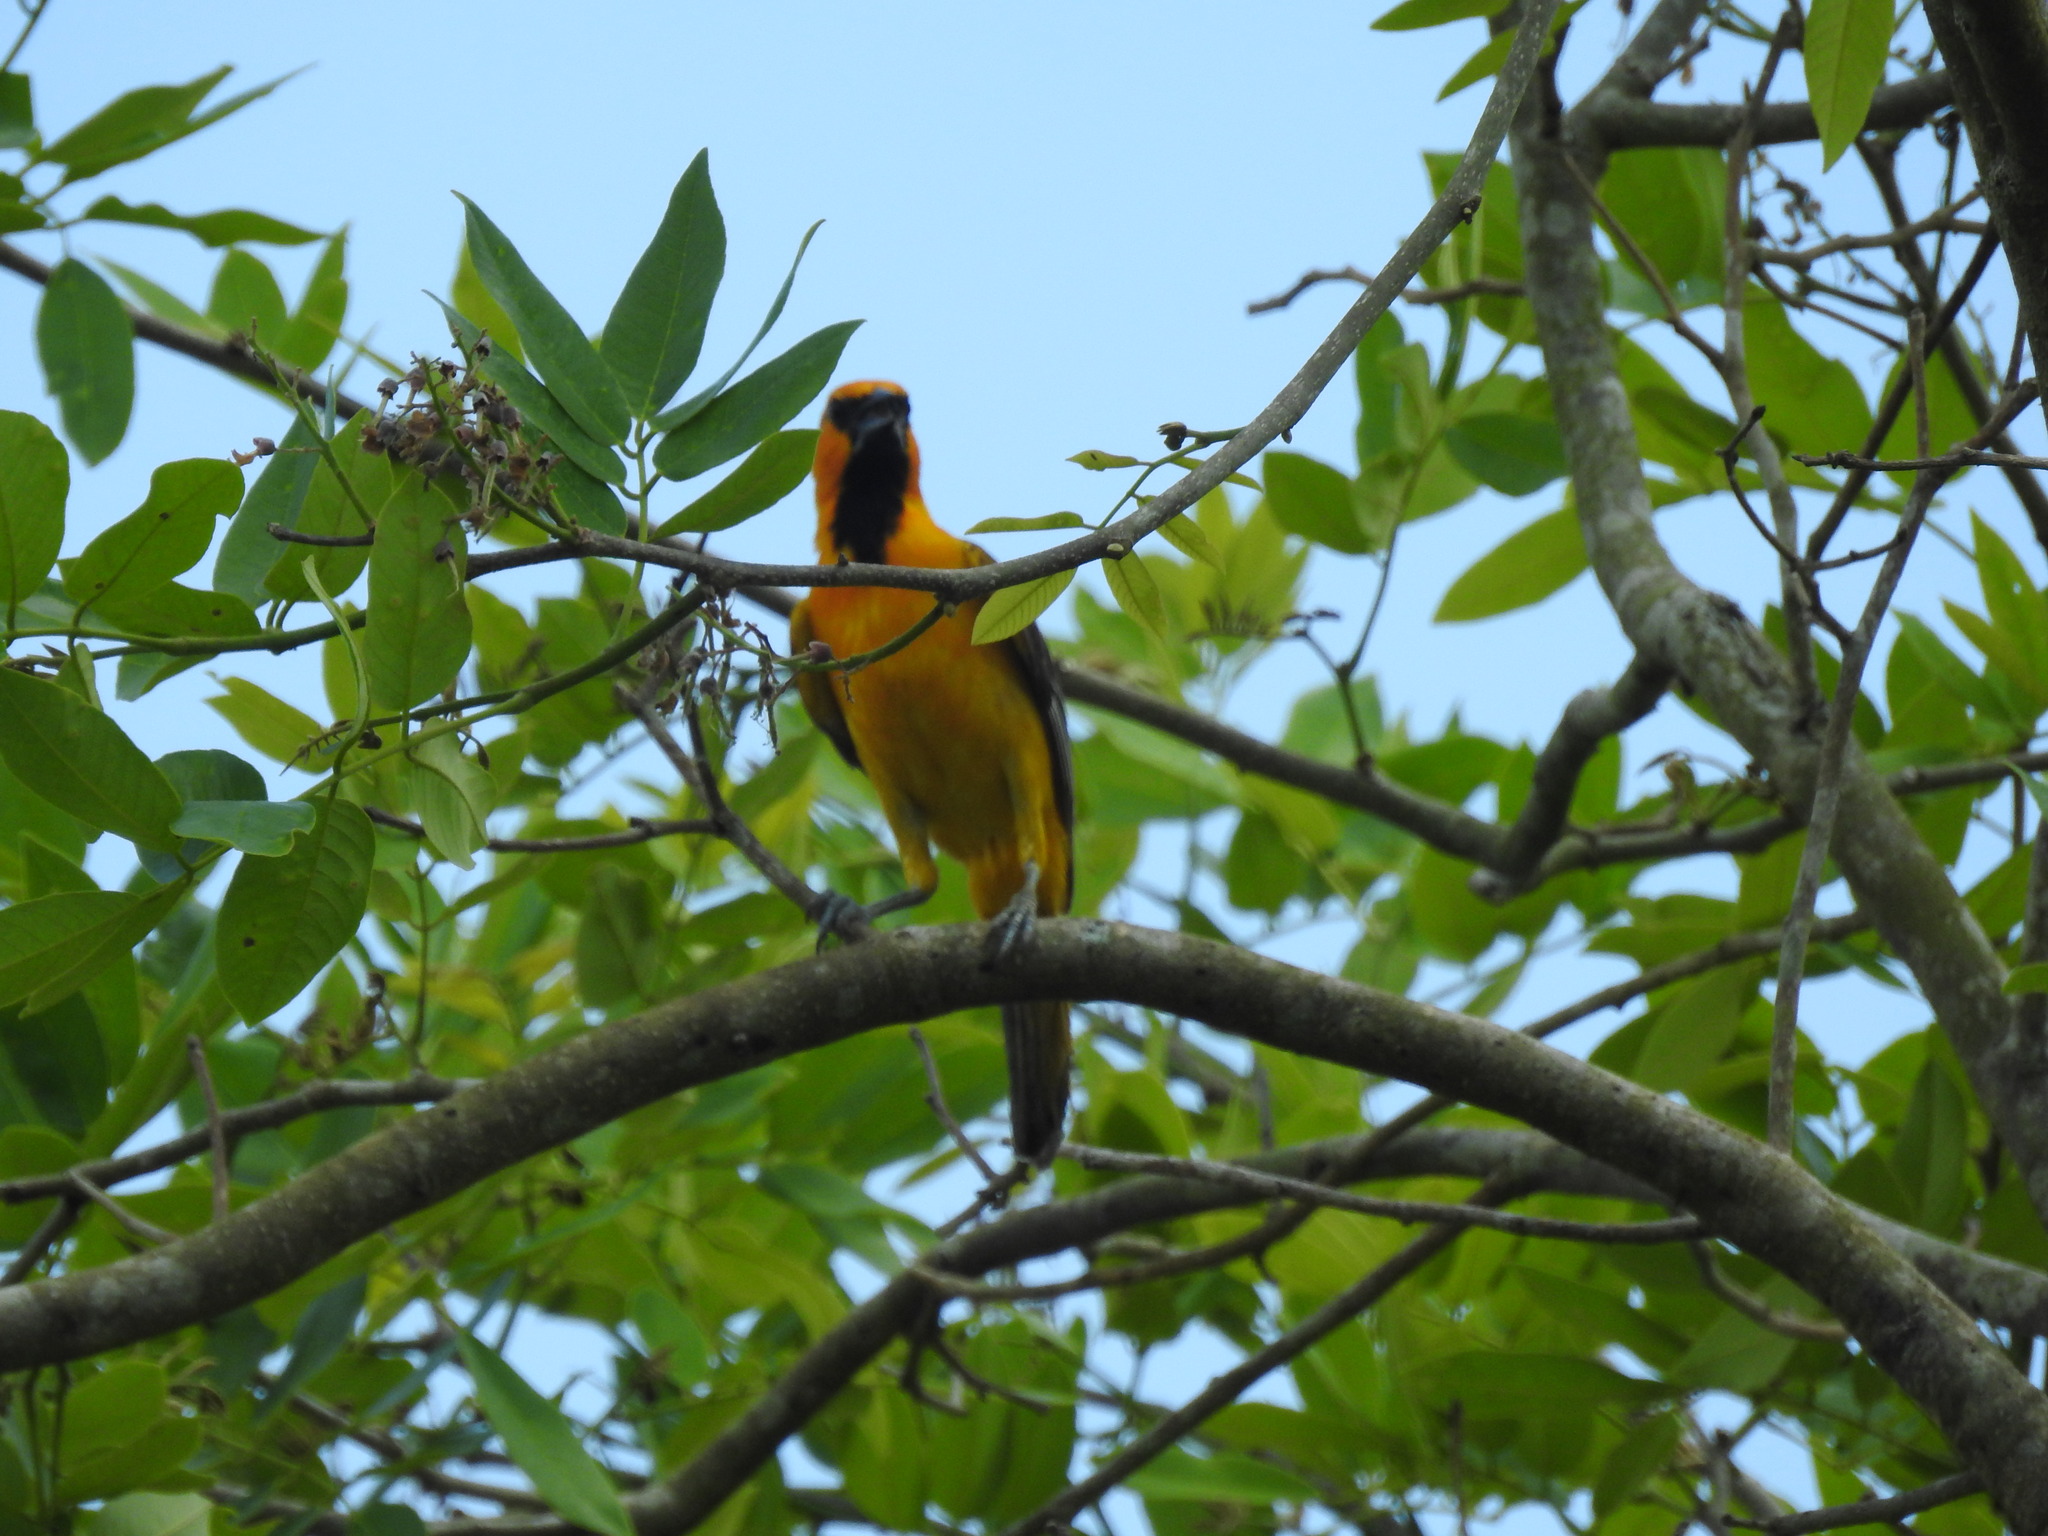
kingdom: Animalia
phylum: Chordata
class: Aves
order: Passeriformes
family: Icteridae
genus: Icterus
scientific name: Icterus gularis
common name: Altamira oriole
